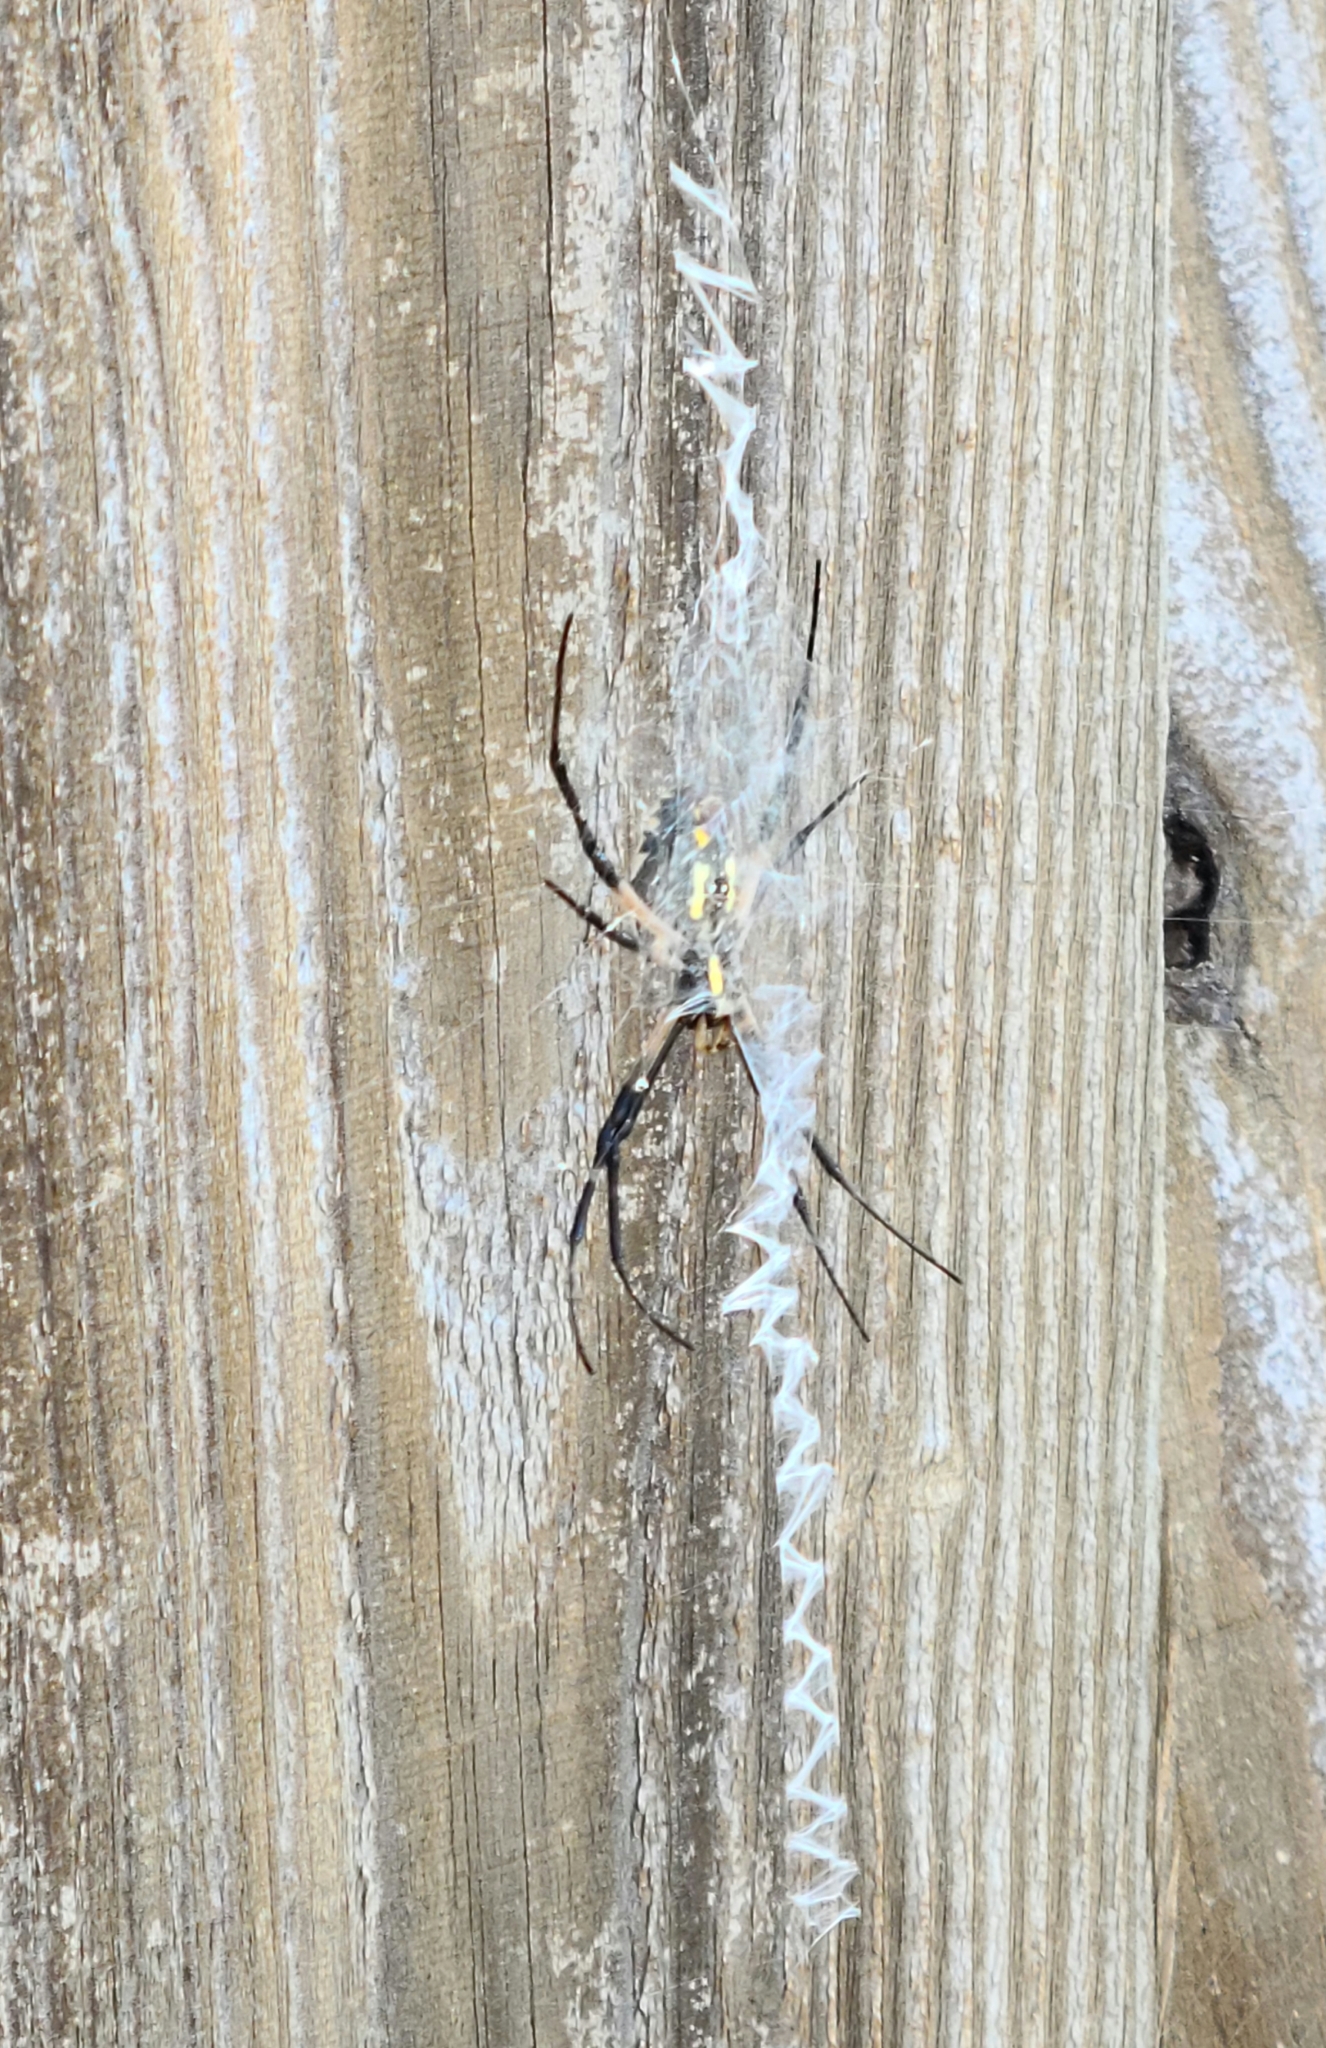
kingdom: Animalia
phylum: Arthropoda
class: Arachnida
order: Araneae
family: Araneidae
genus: Argiope
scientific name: Argiope aurantia
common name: Orb weavers
